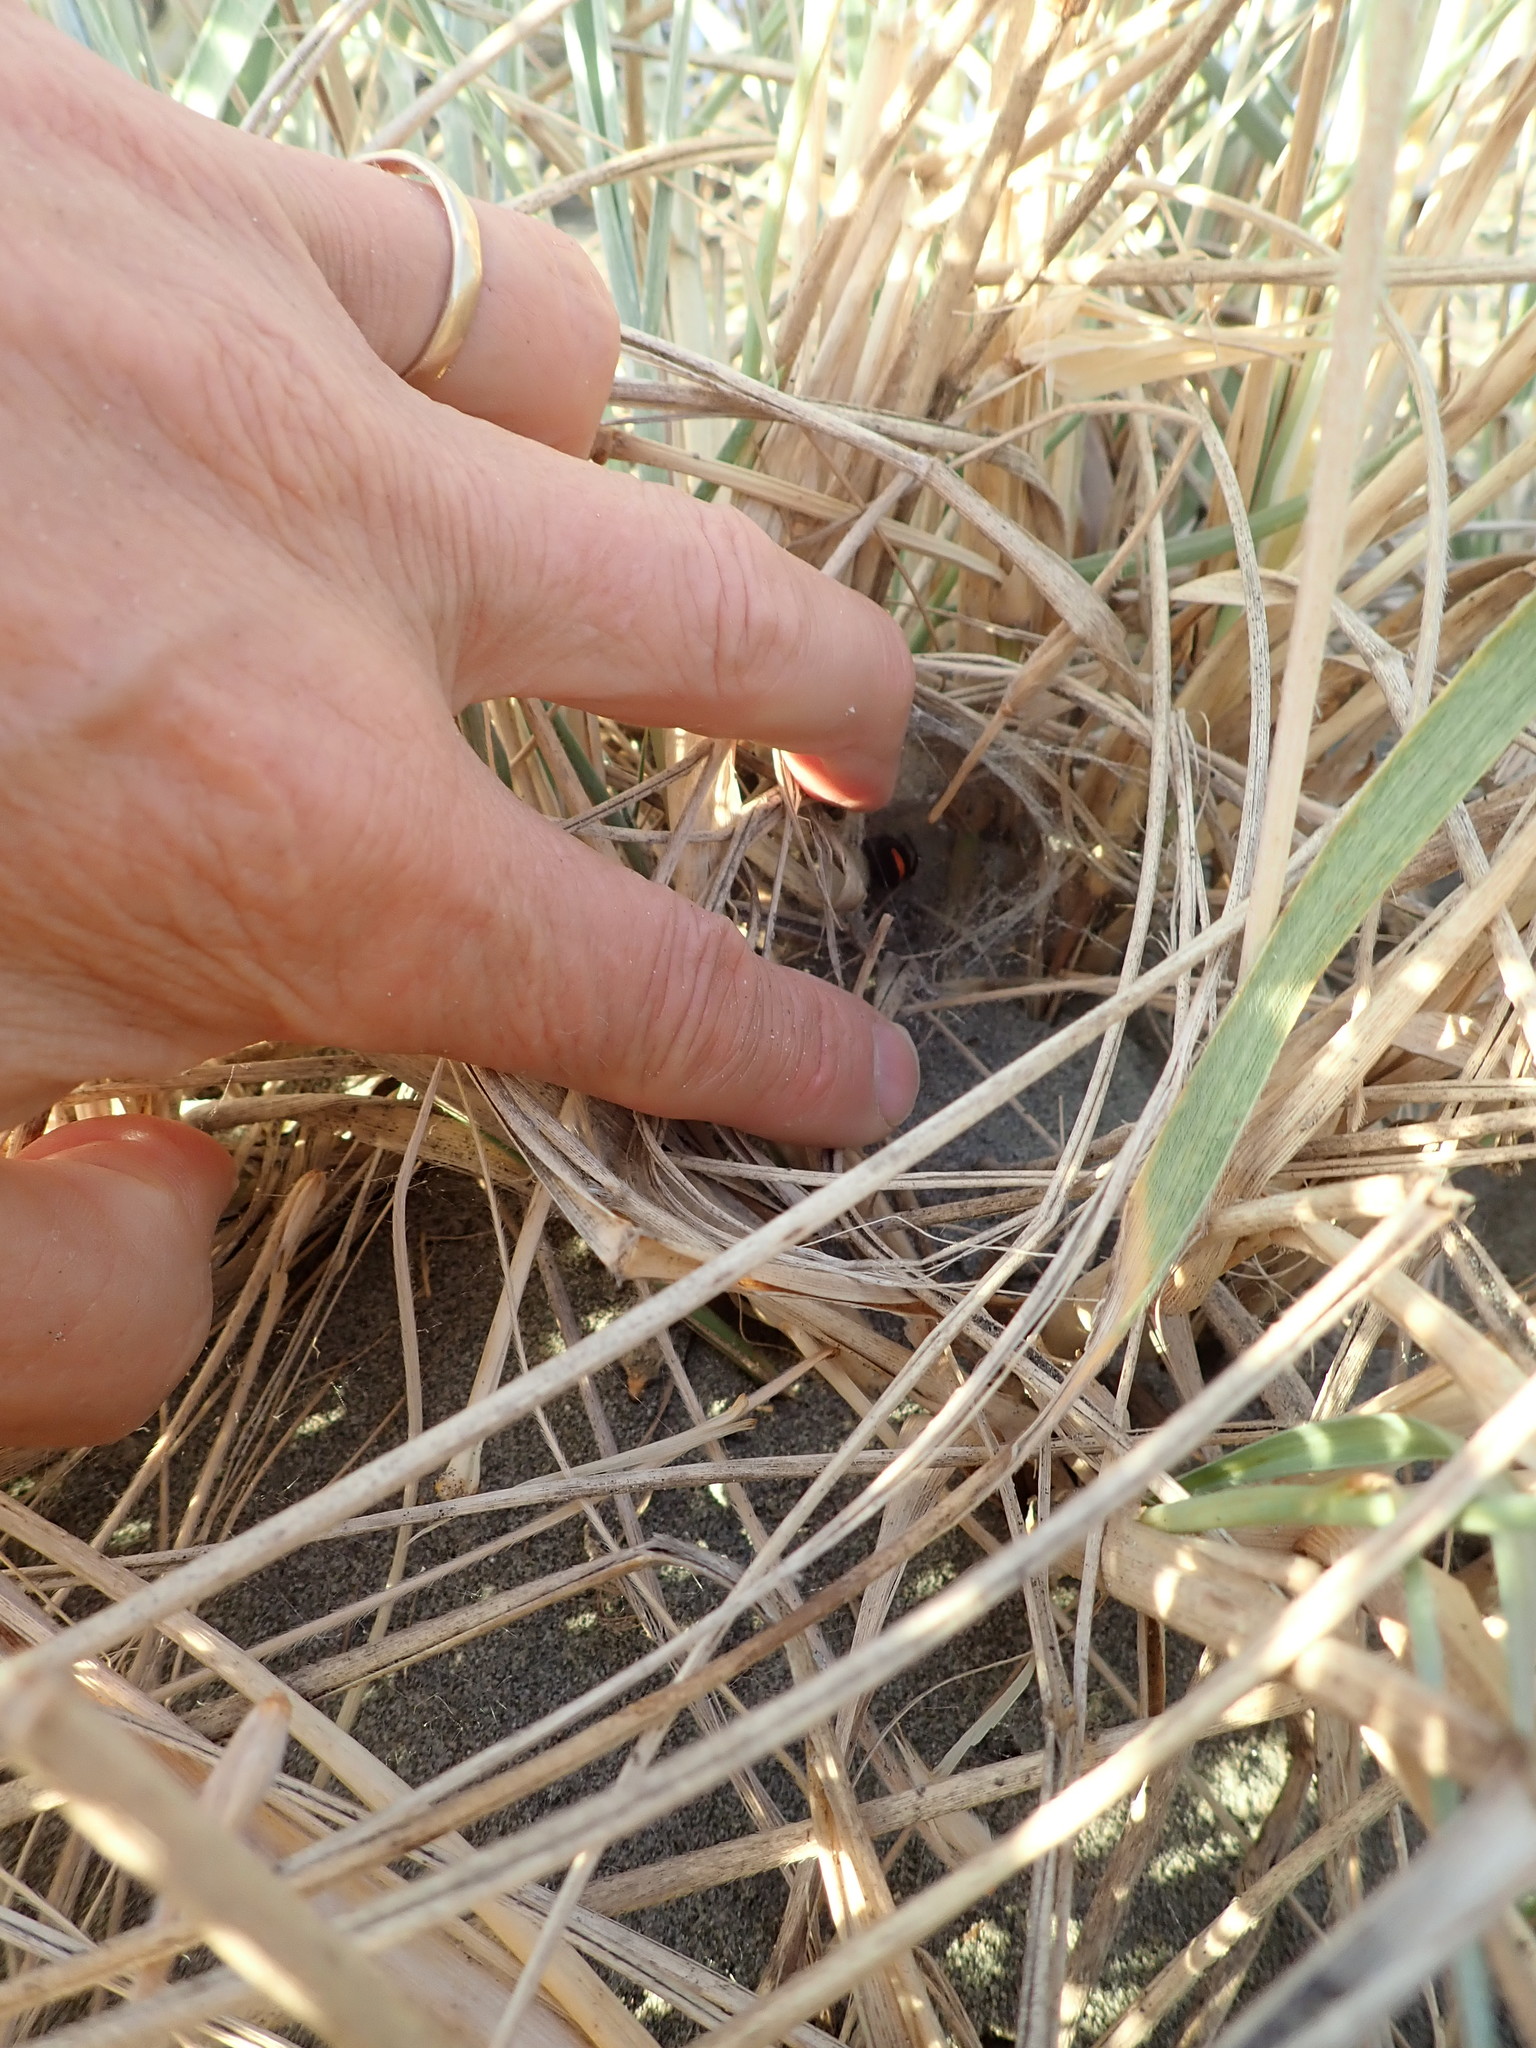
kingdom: Animalia
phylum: Arthropoda
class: Arachnida
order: Araneae
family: Theridiidae
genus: Latrodectus
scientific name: Latrodectus katipo
